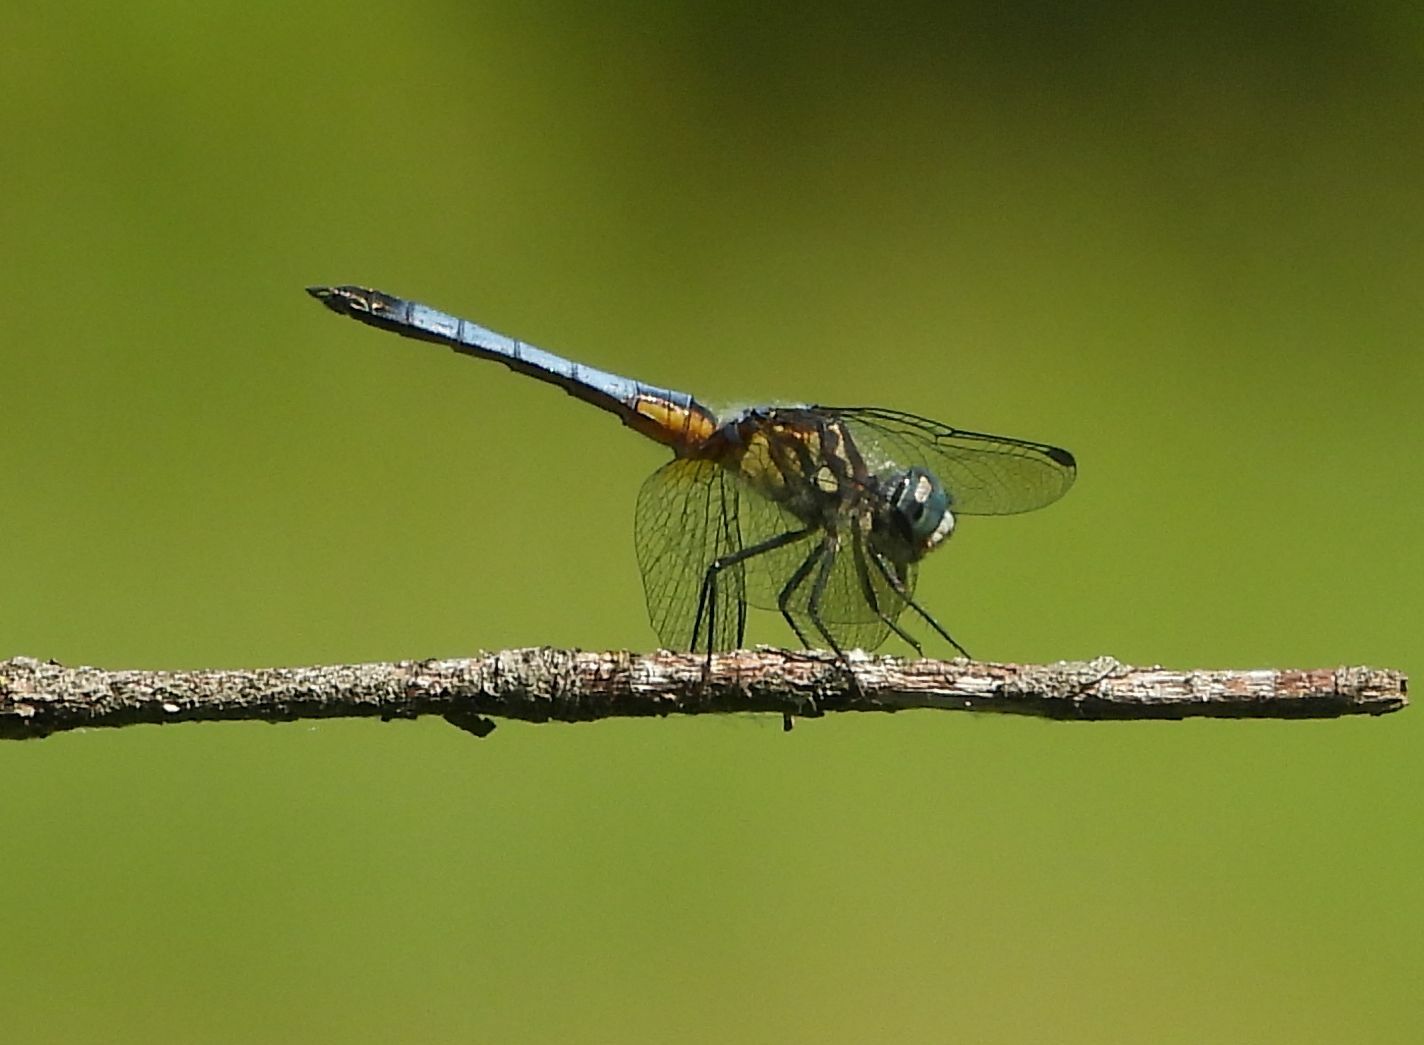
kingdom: Animalia
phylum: Arthropoda
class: Insecta
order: Odonata
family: Libellulidae
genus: Pachydiplax
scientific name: Pachydiplax longipennis
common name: Blue dasher
